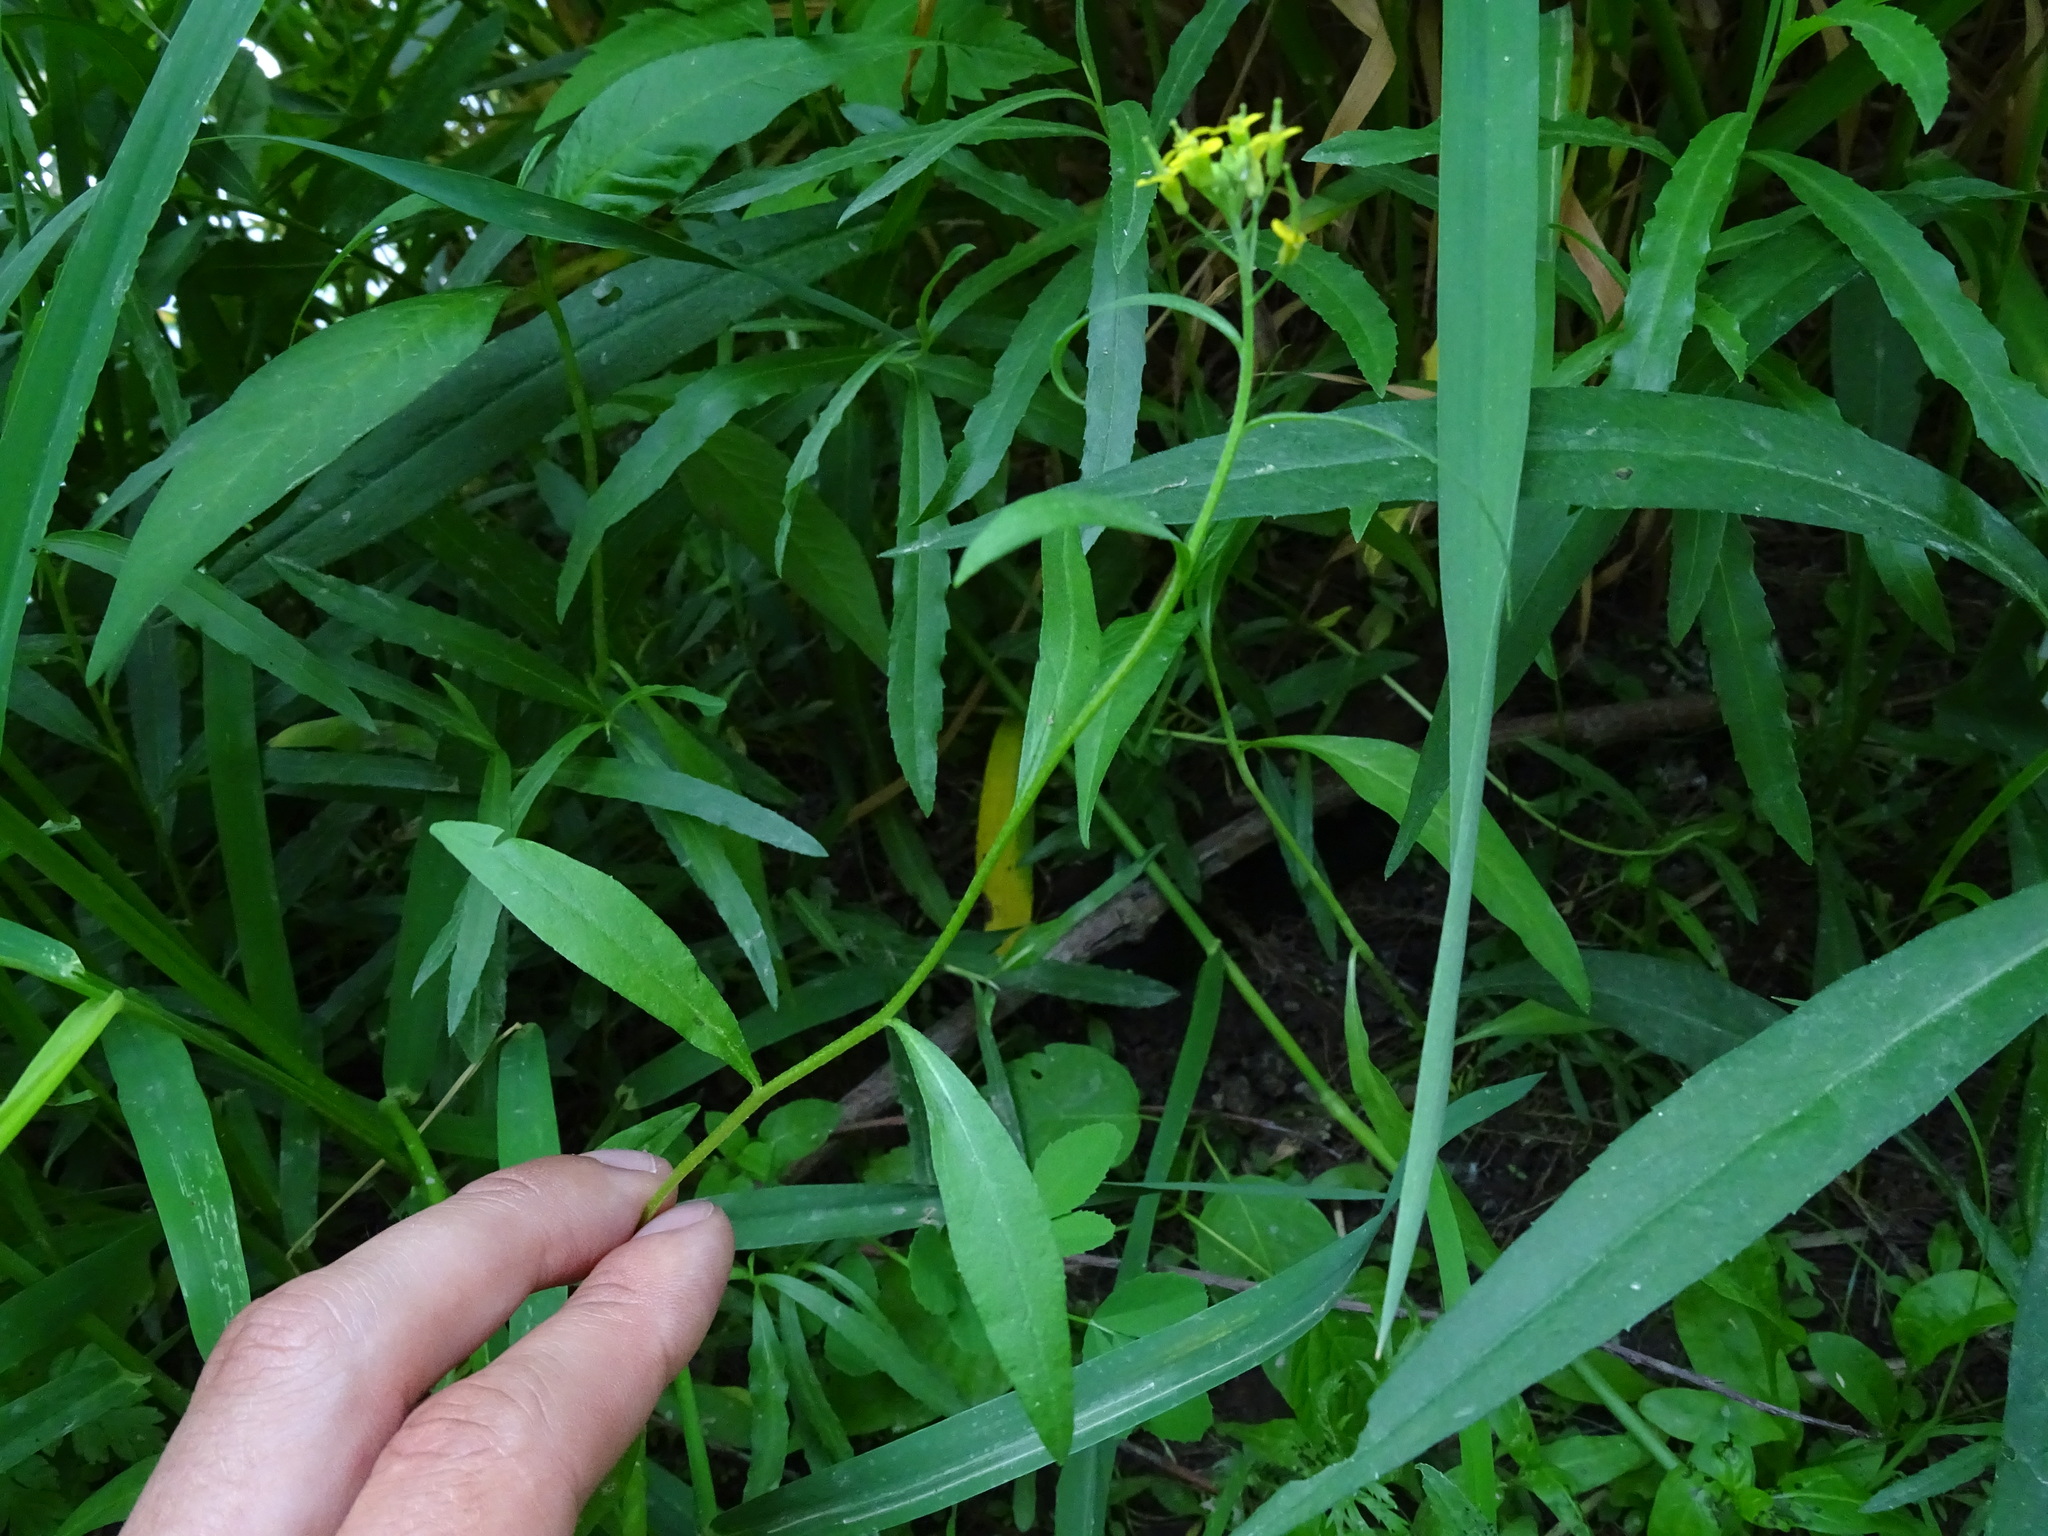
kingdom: Plantae
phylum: Tracheophyta
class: Magnoliopsida
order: Brassicales
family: Brassicaceae
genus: Erysimum
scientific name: Erysimum cheiranthoides
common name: Treacle mustard
